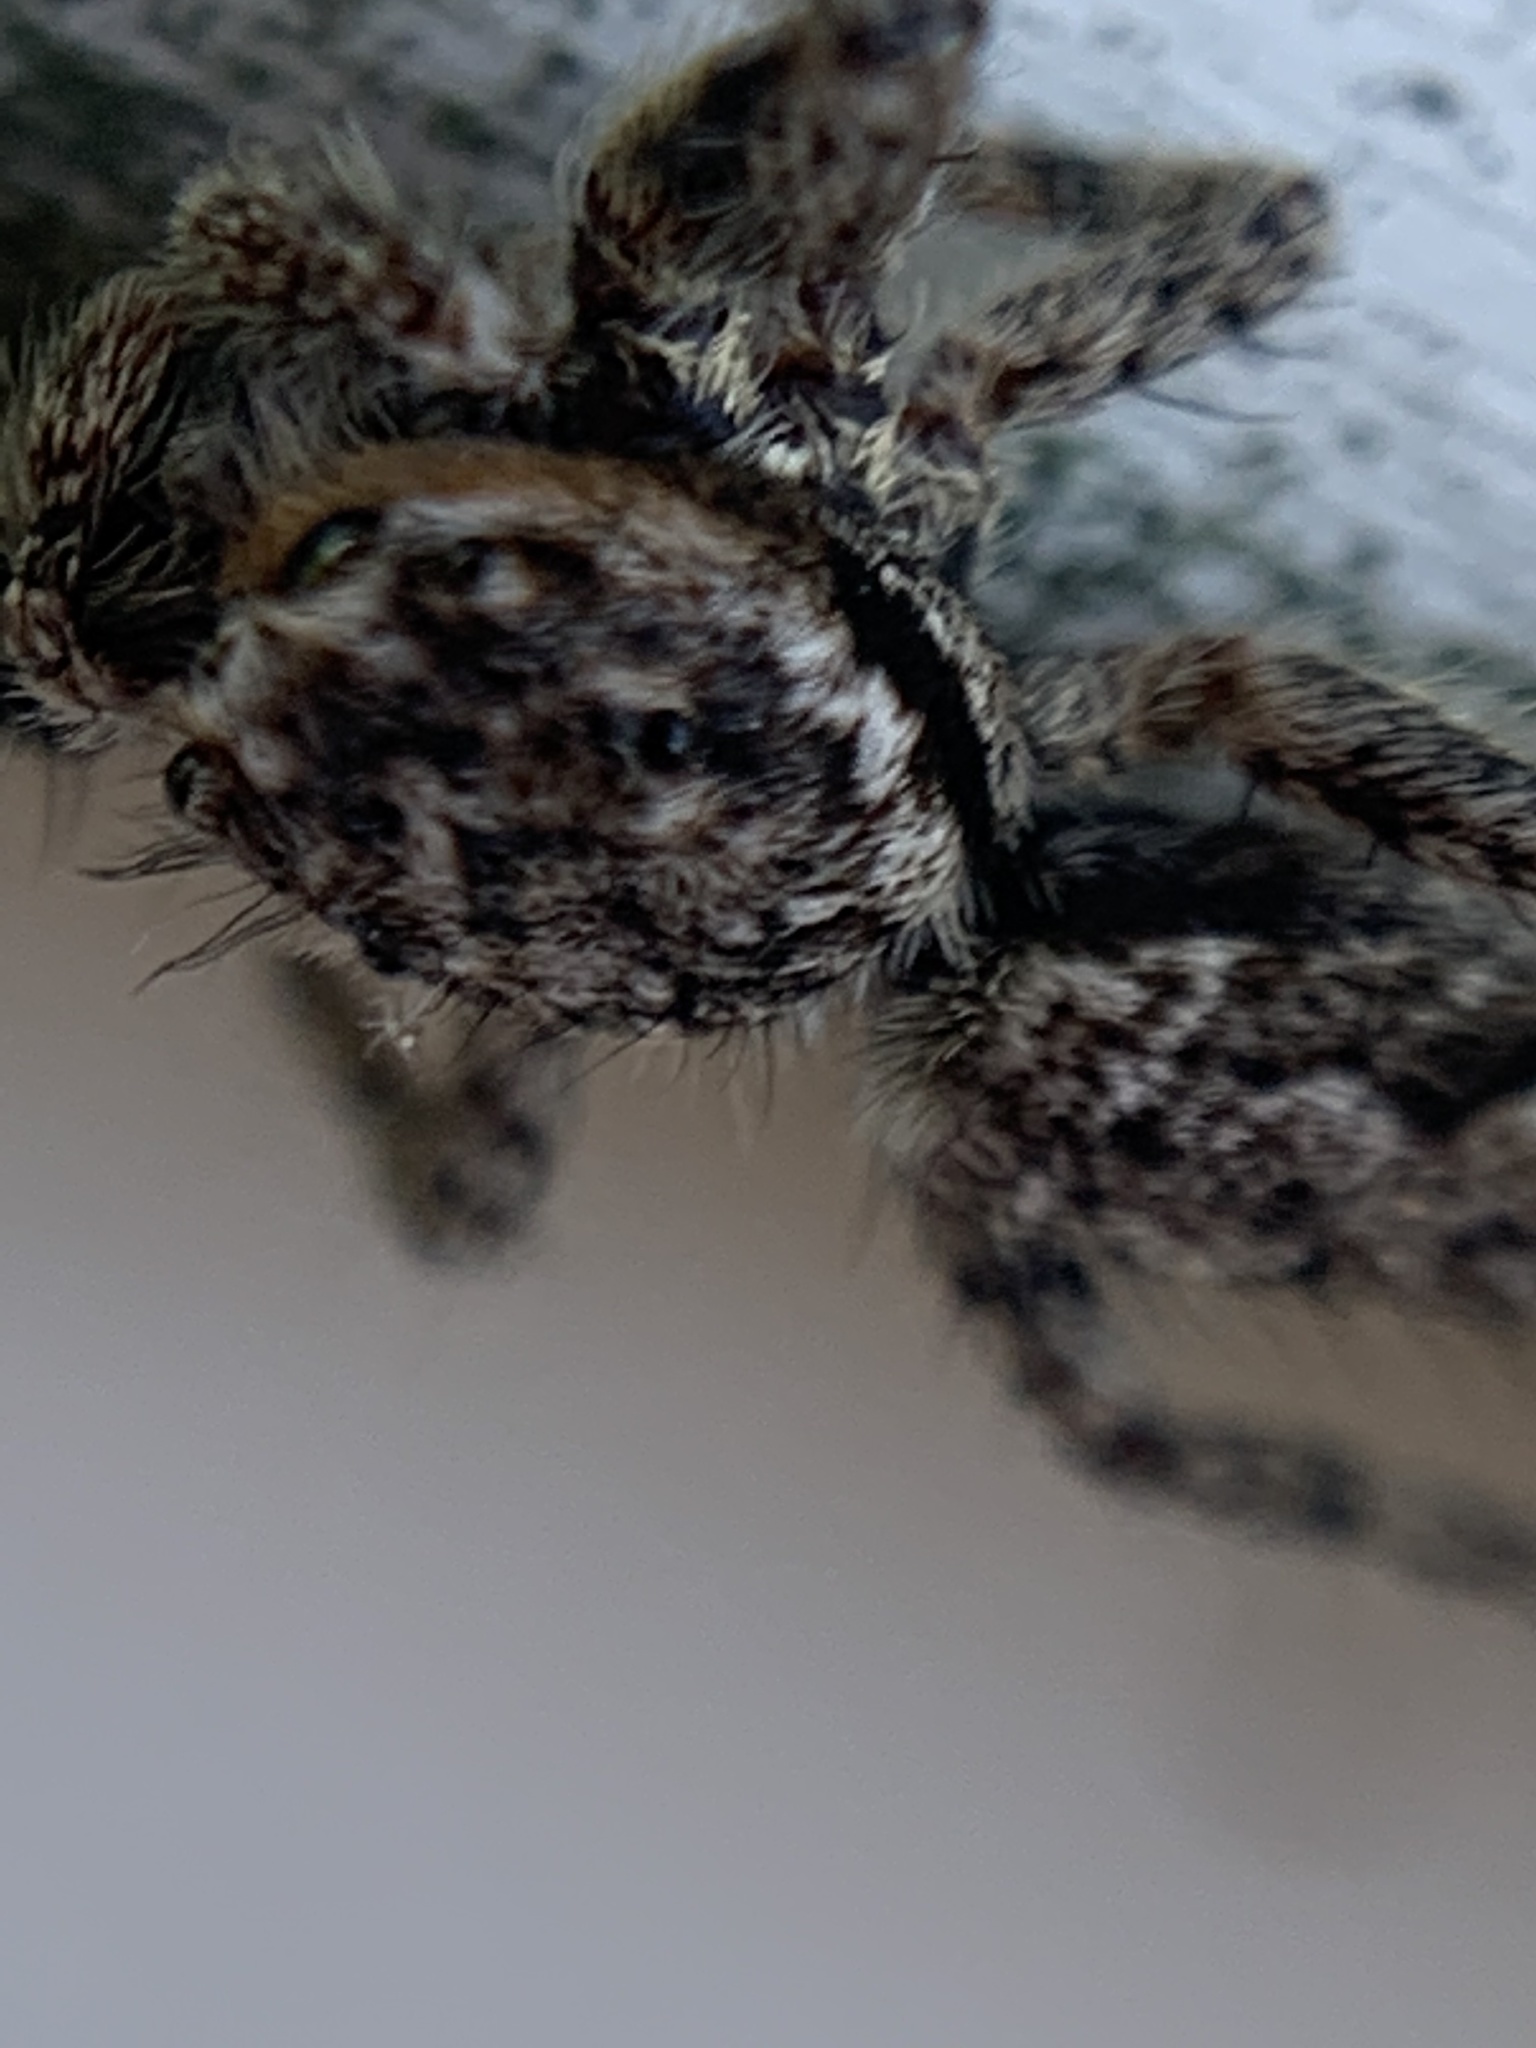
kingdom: Animalia
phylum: Arthropoda
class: Arachnida
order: Araneae
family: Salticidae
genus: Platycryptus
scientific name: Platycryptus undatus
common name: Tan jumping spider
